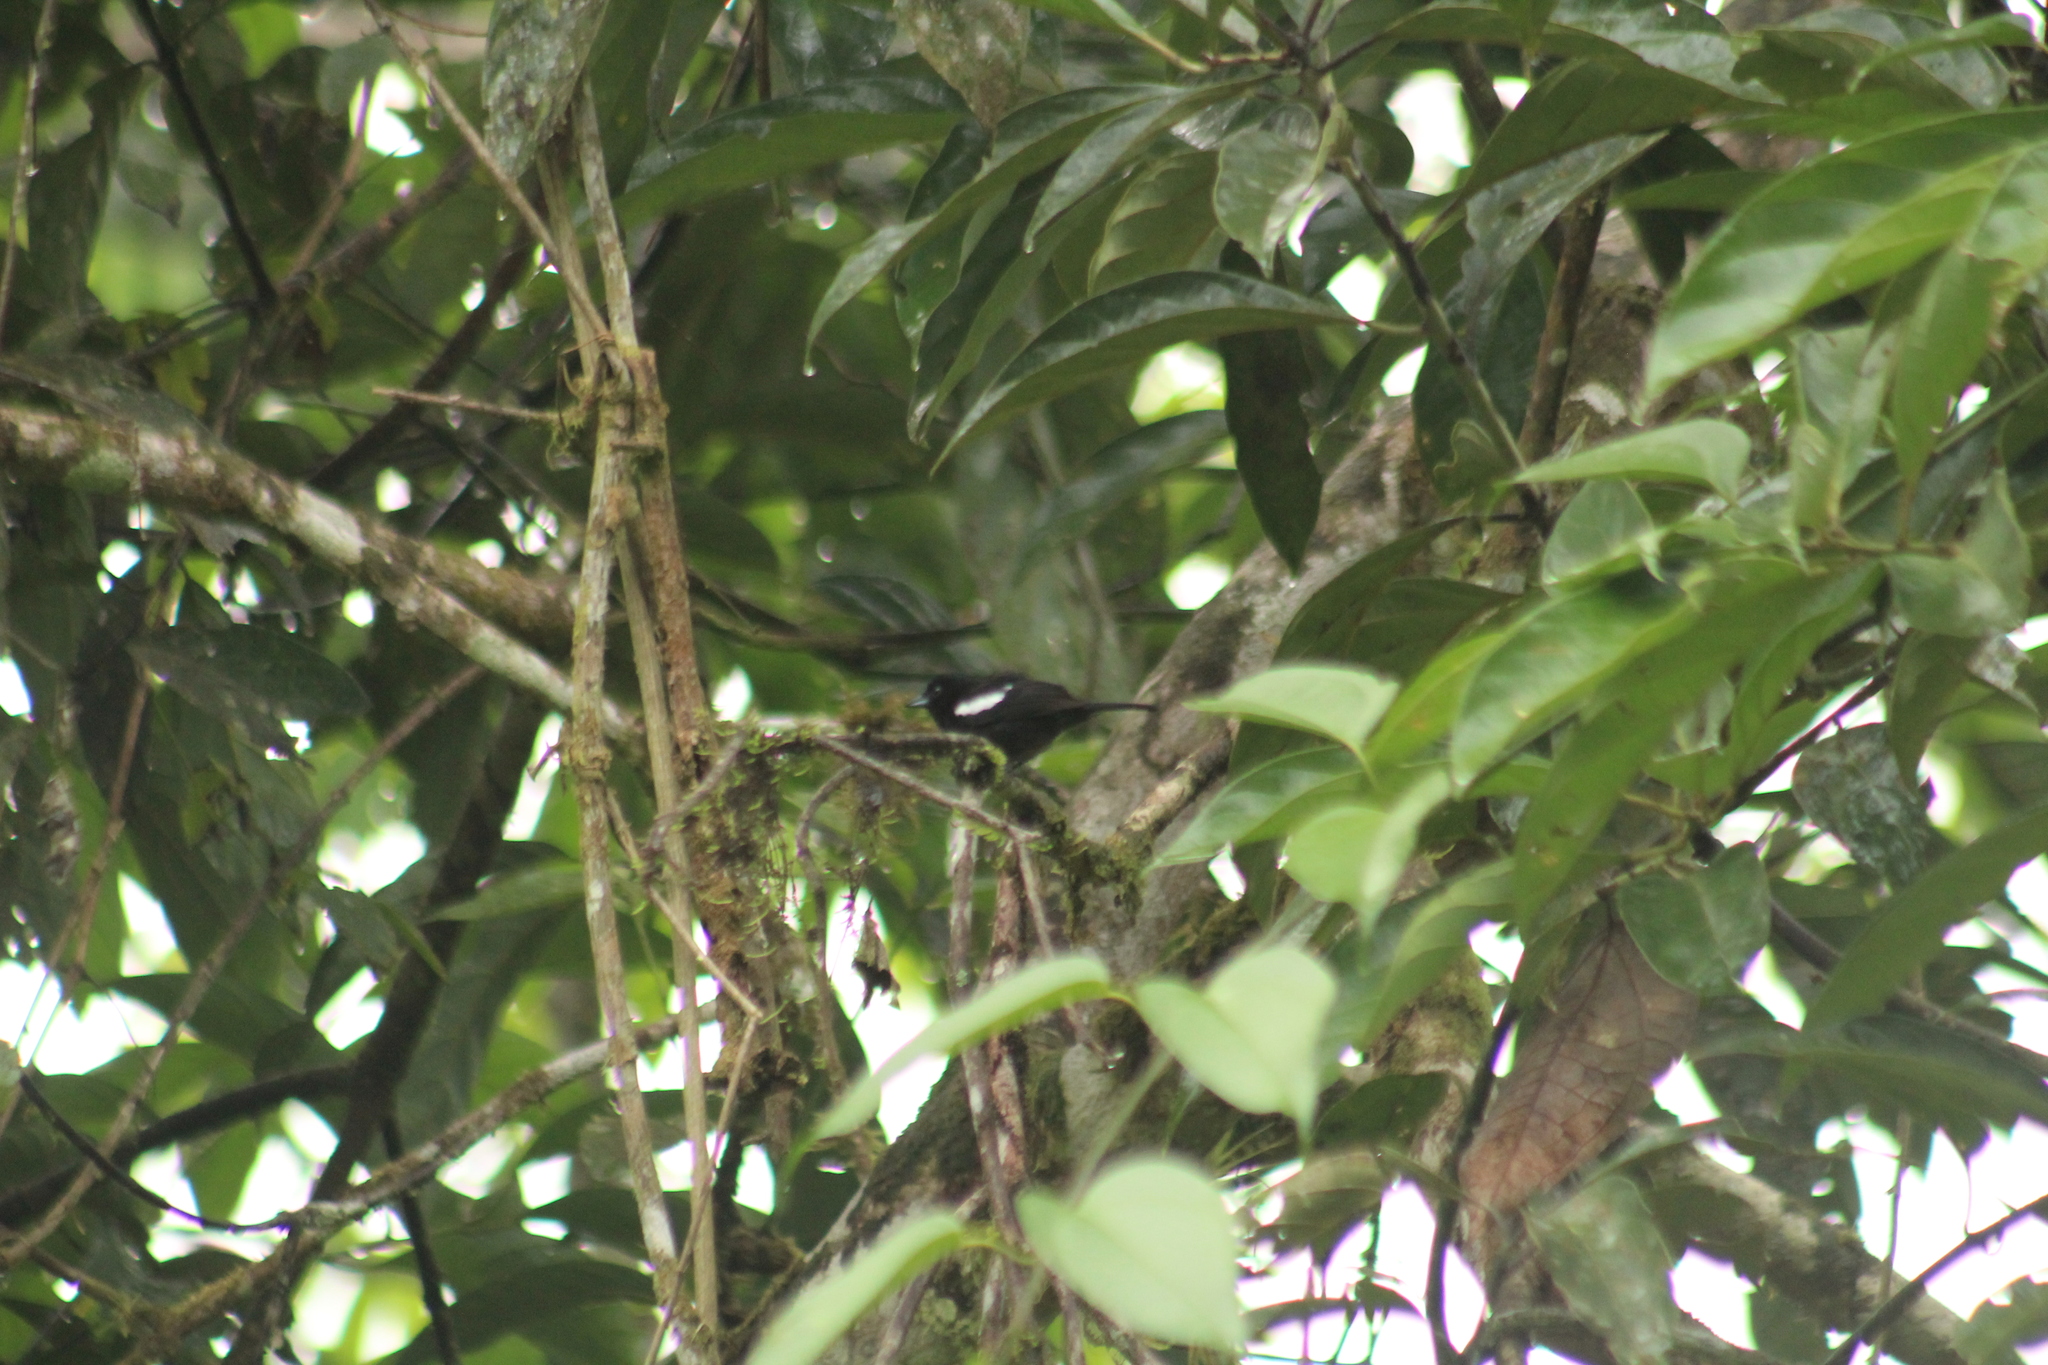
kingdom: Animalia
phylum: Chordata
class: Aves
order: Passeriformes
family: Thraupidae
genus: Loriotus
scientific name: Loriotus luctuosus
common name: White-shouldered tanager
